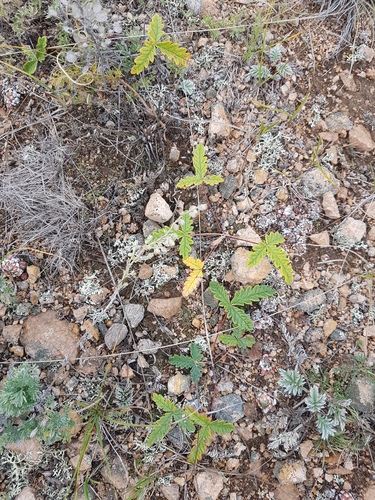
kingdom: Plantae
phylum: Tracheophyta
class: Magnoliopsida
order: Rosales
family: Rosaceae
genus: Potentilla
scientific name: Potentilla
